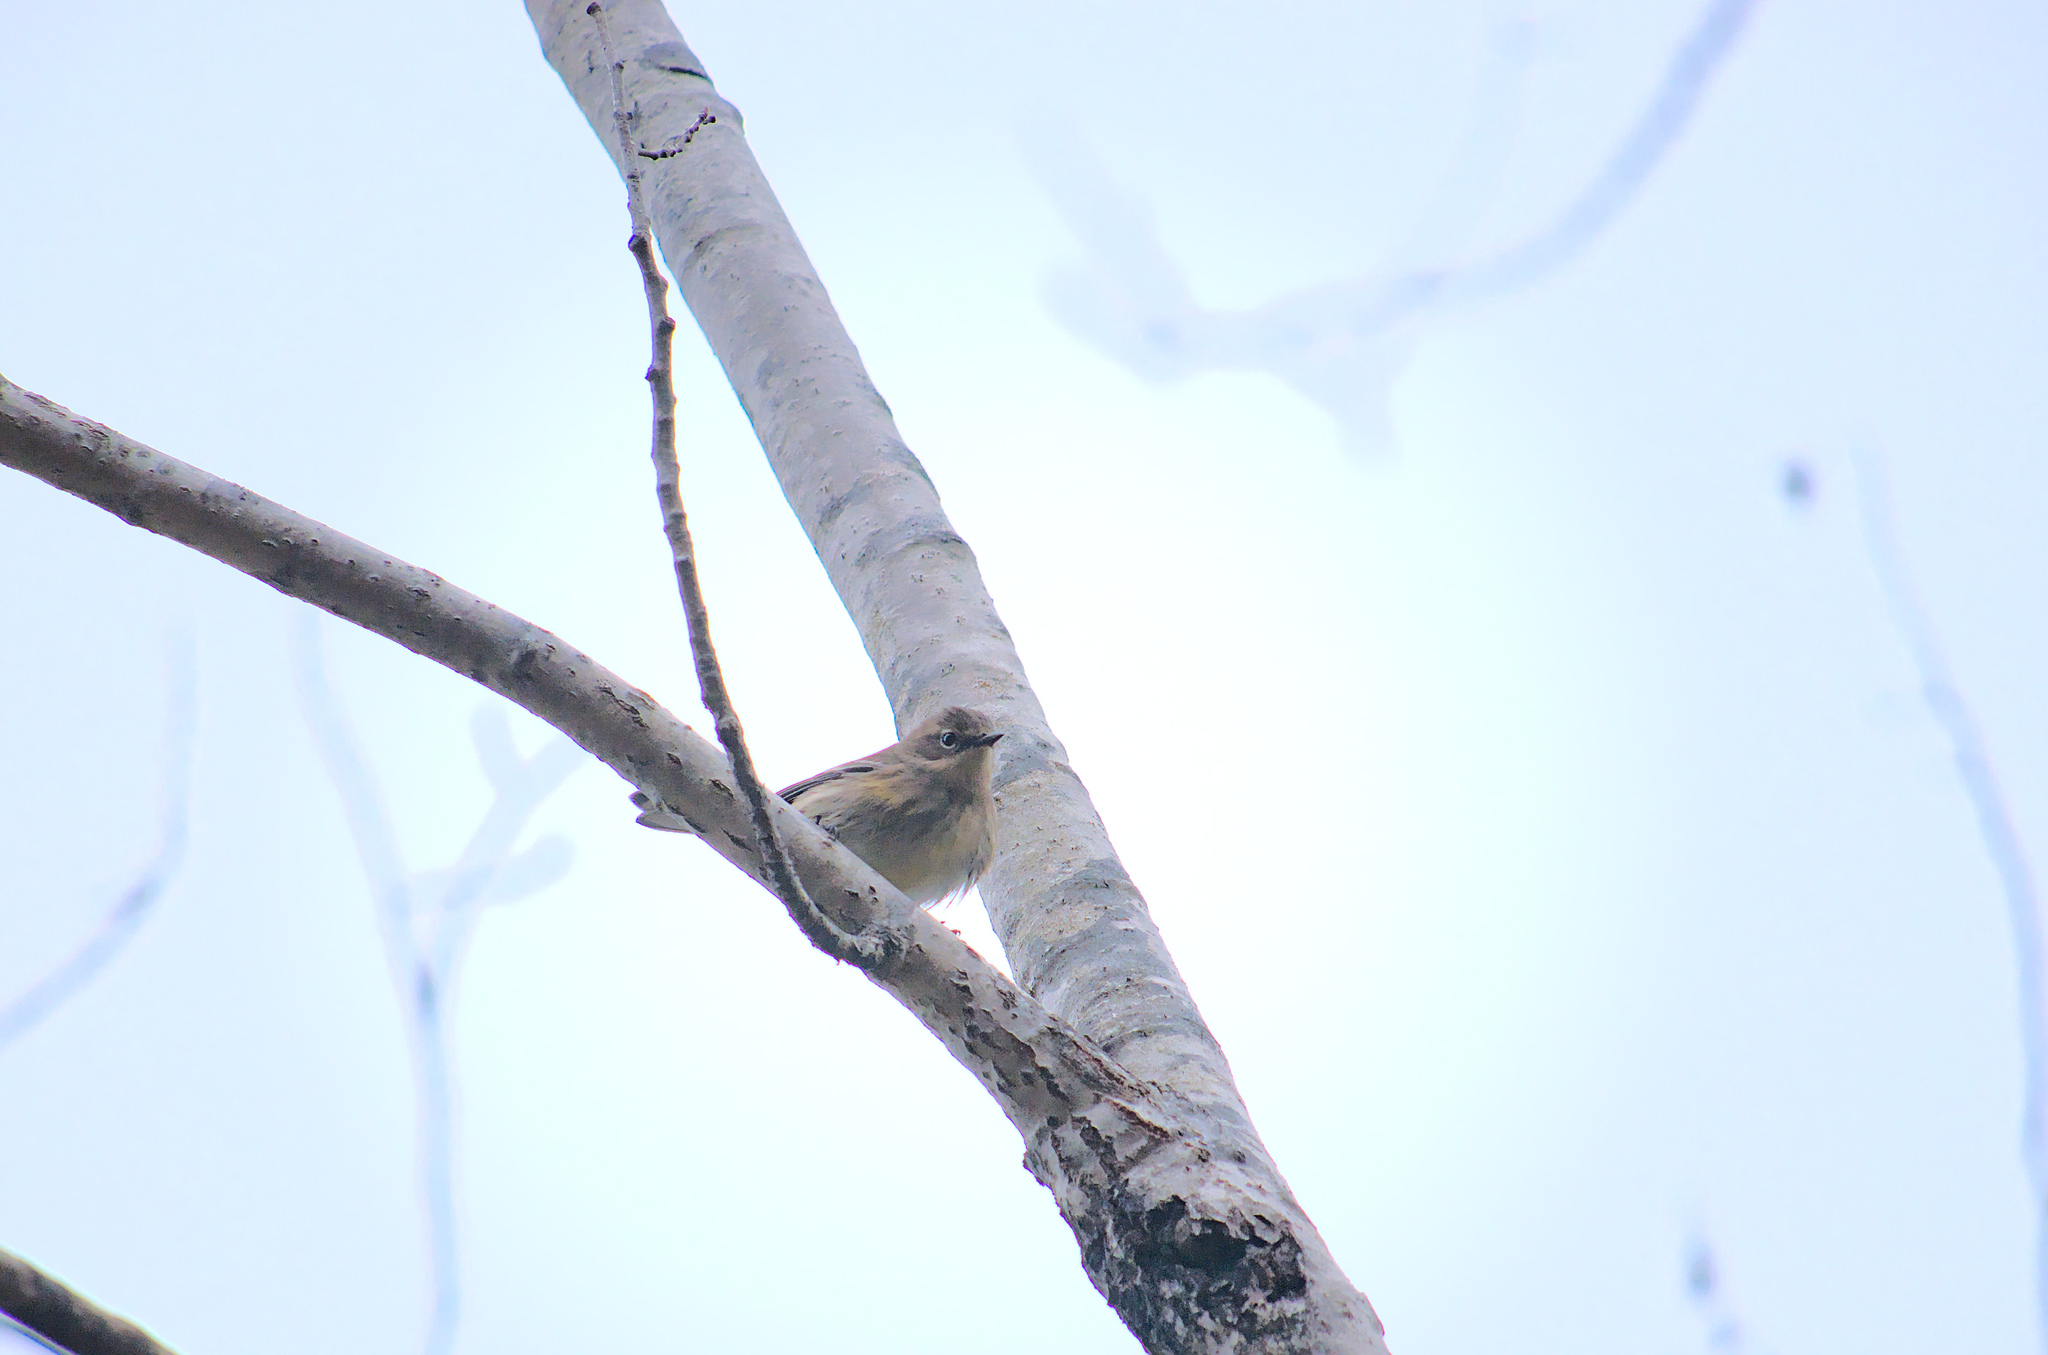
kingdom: Animalia
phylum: Chordata
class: Aves
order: Passeriformes
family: Parulidae
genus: Setophaga
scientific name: Setophaga coronata
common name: Myrtle warbler
